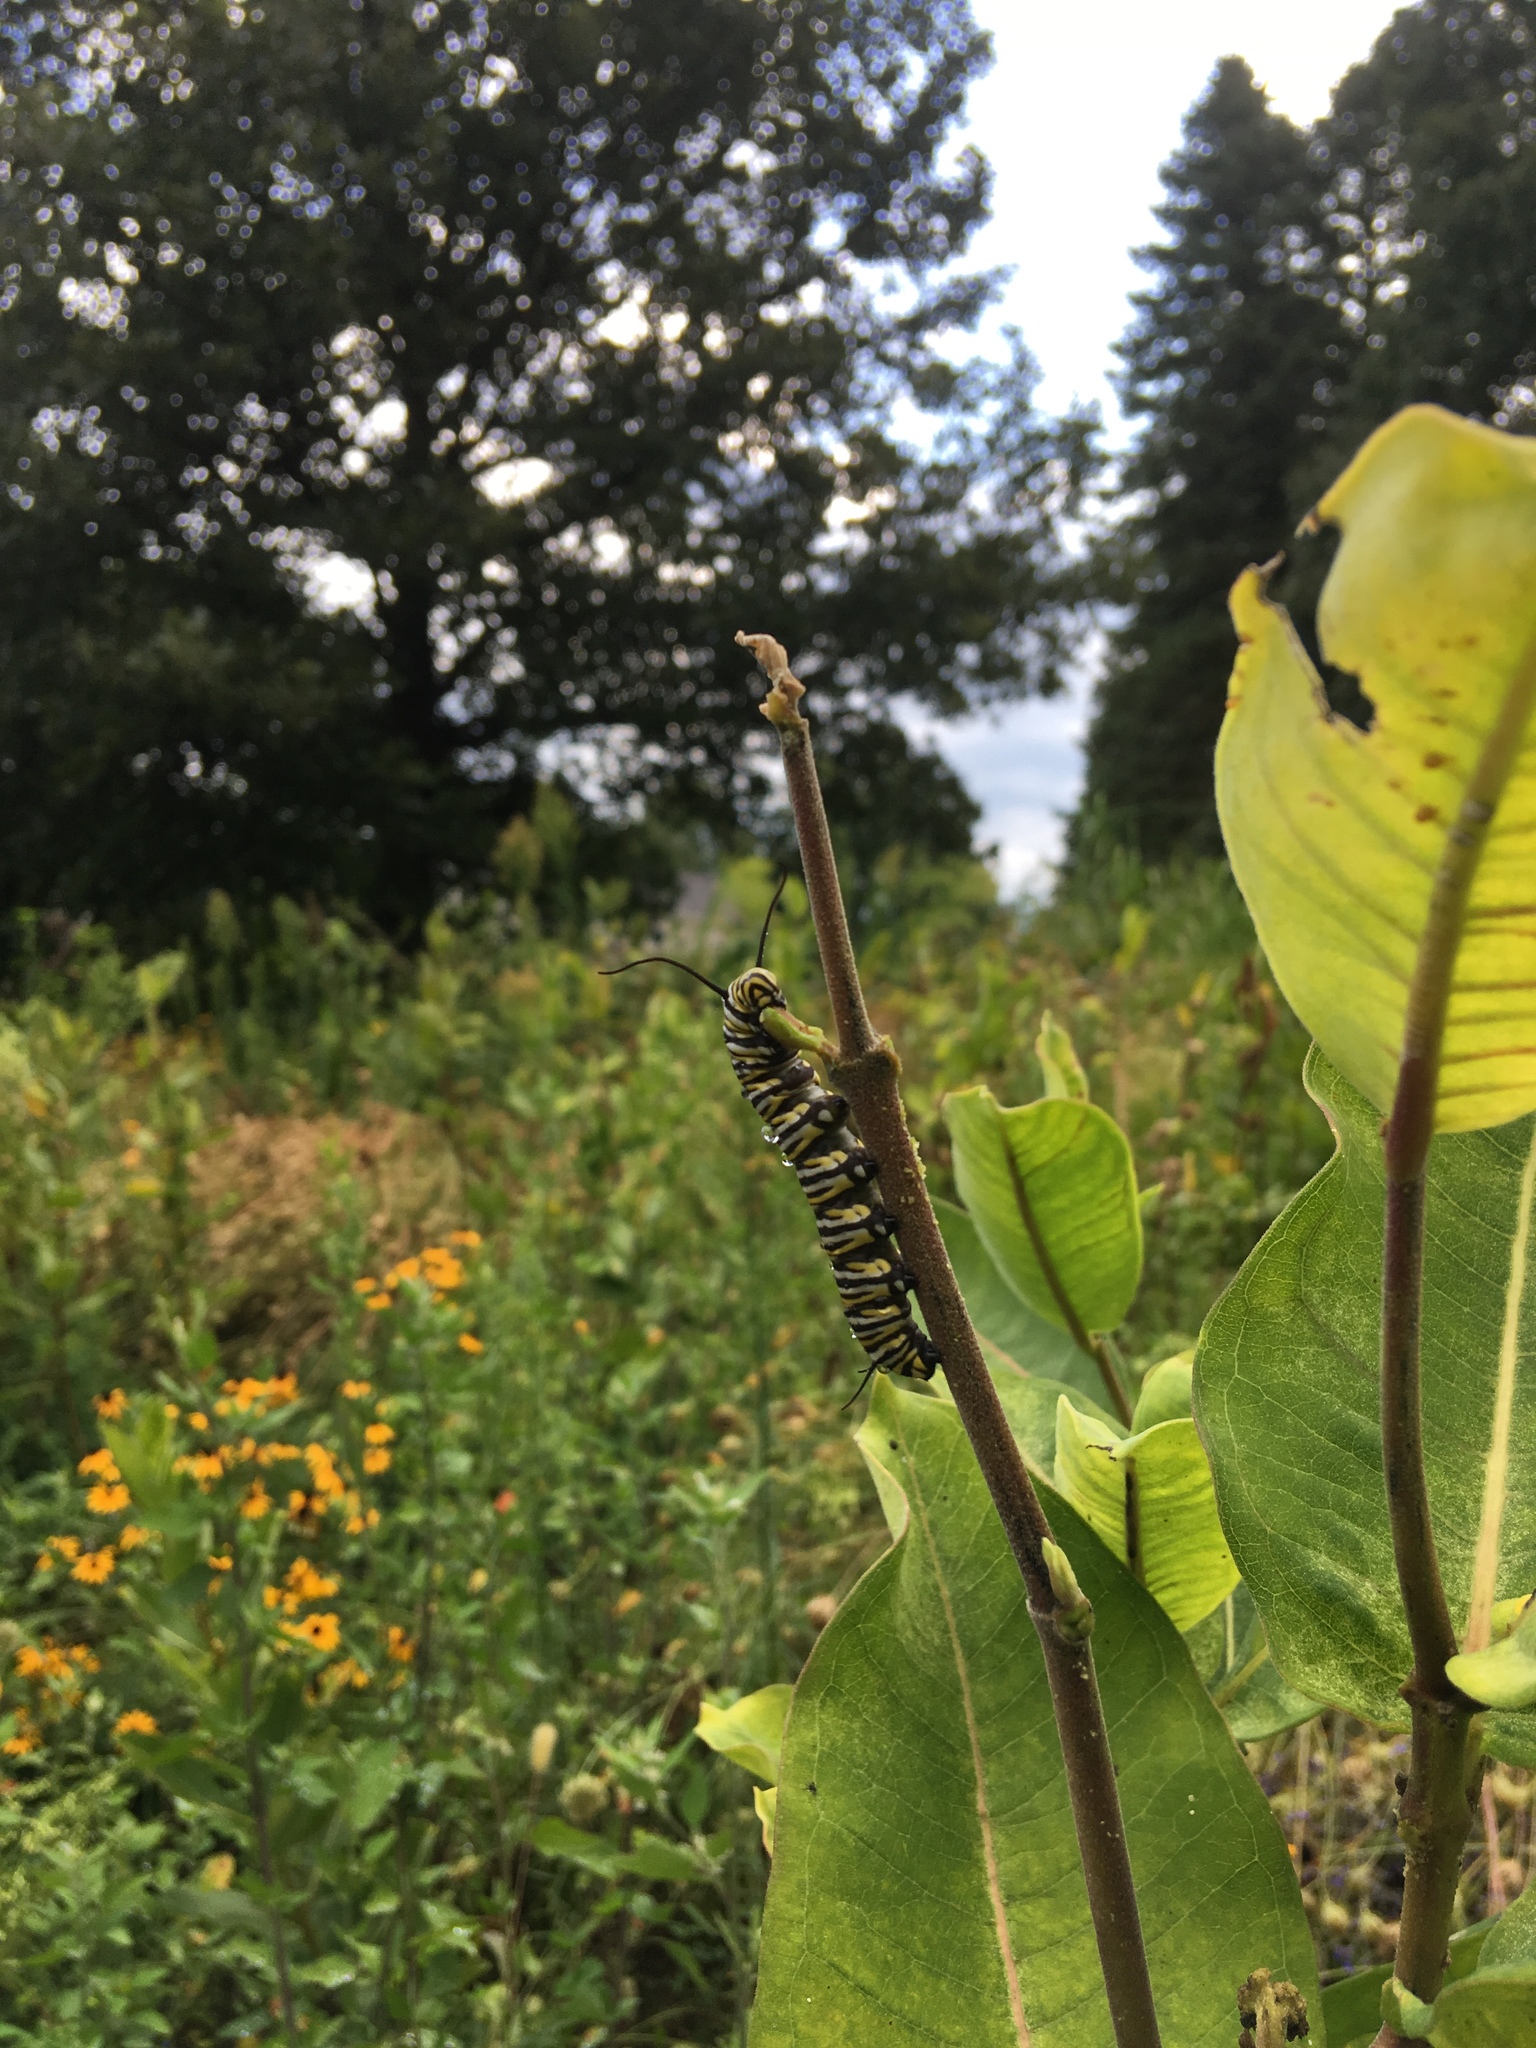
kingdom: Animalia
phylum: Arthropoda
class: Insecta
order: Lepidoptera
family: Nymphalidae
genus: Danaus
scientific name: Danaus plexippus
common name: Monarch
